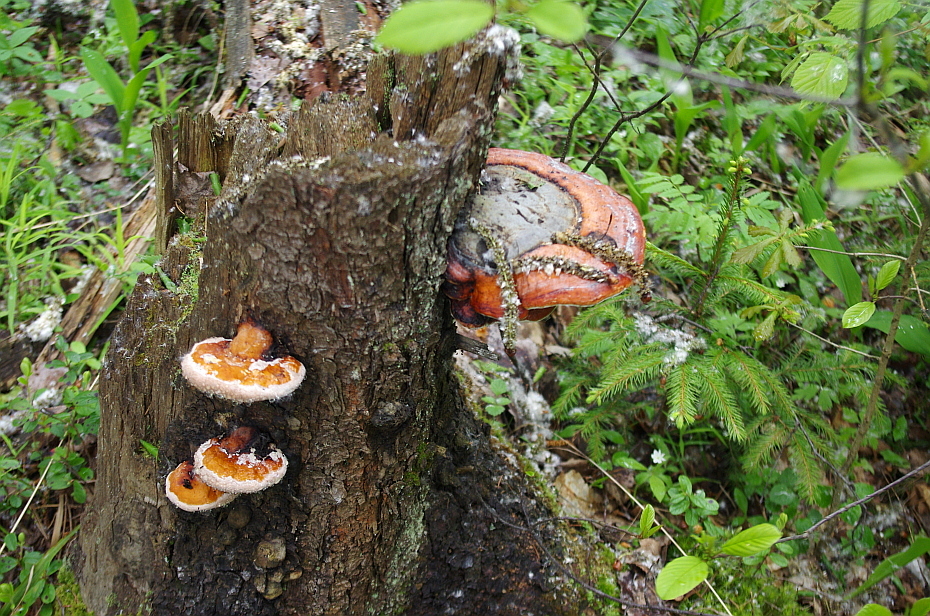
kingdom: Fungi
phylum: Basidiomycota
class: Agaricomycetes
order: Polyporales
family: Fomitopsidaceae
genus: Fomitopsis
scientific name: Fomitopsis pinicola
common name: Red-belted bracket
